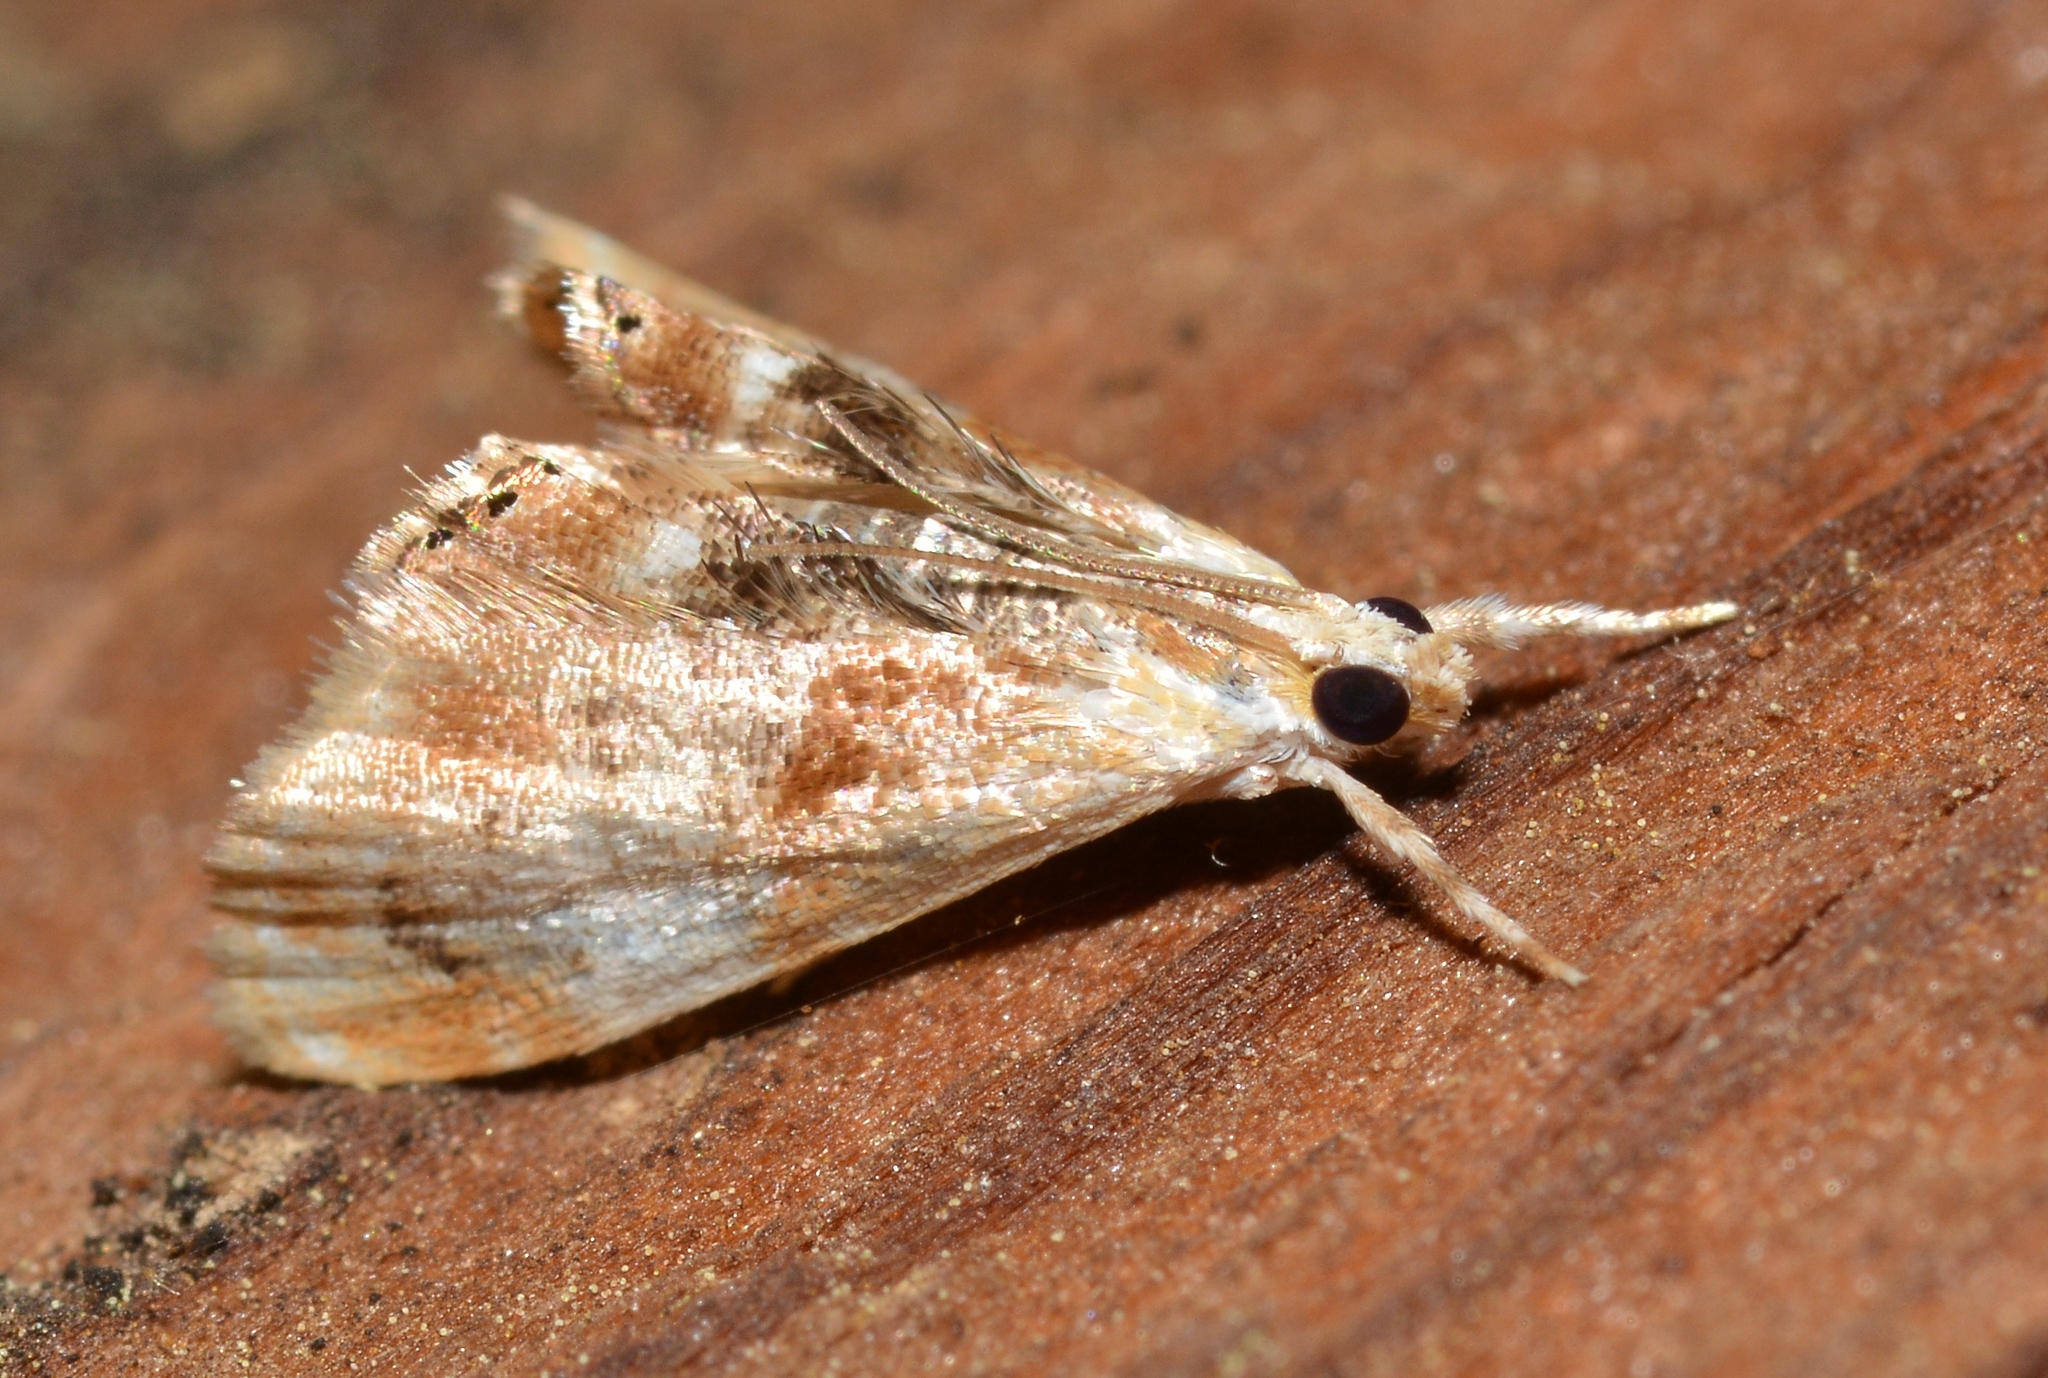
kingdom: Animalia
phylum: Arthropoda
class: Insecta
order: Lepidoptera
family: Crambidae
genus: Dicymolomia
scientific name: Dicymolomia julianalis
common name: Julia's dicymolomia moth
